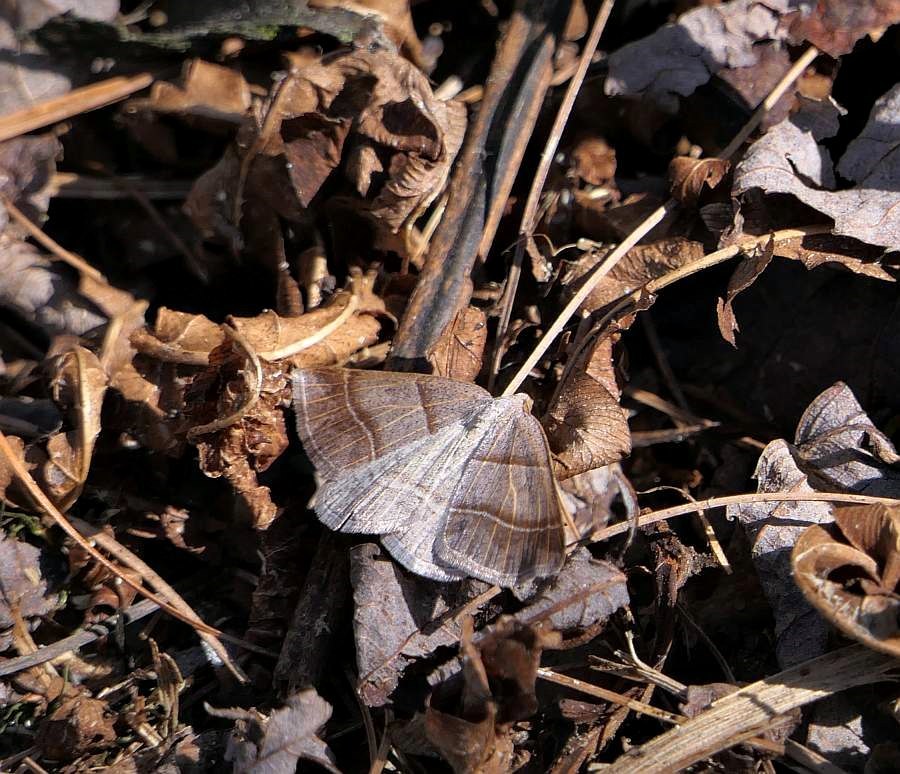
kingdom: Animalia
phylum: Arthropoda
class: Insecta
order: Lepidoptera
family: Erebidae
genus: Parallelia
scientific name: Parallelia bistriaris
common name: Maple looper moth
